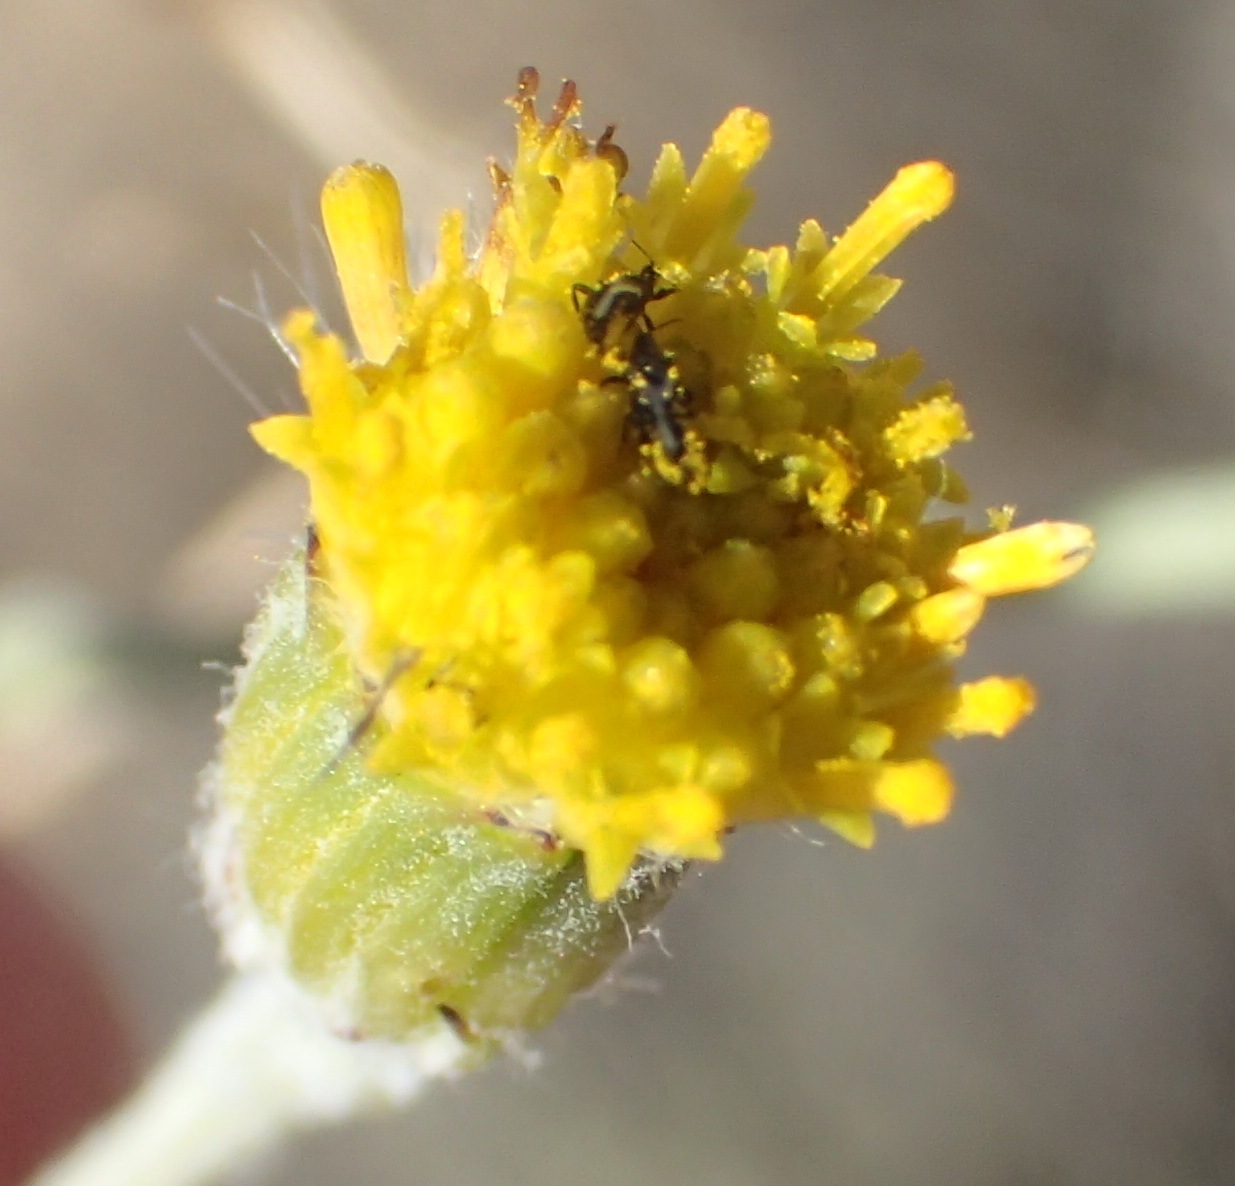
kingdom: Plantae
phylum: Tracheophyta
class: Magnoliopsida
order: Asterales
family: Asteraceae
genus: Senecio
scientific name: Senecio niveus
